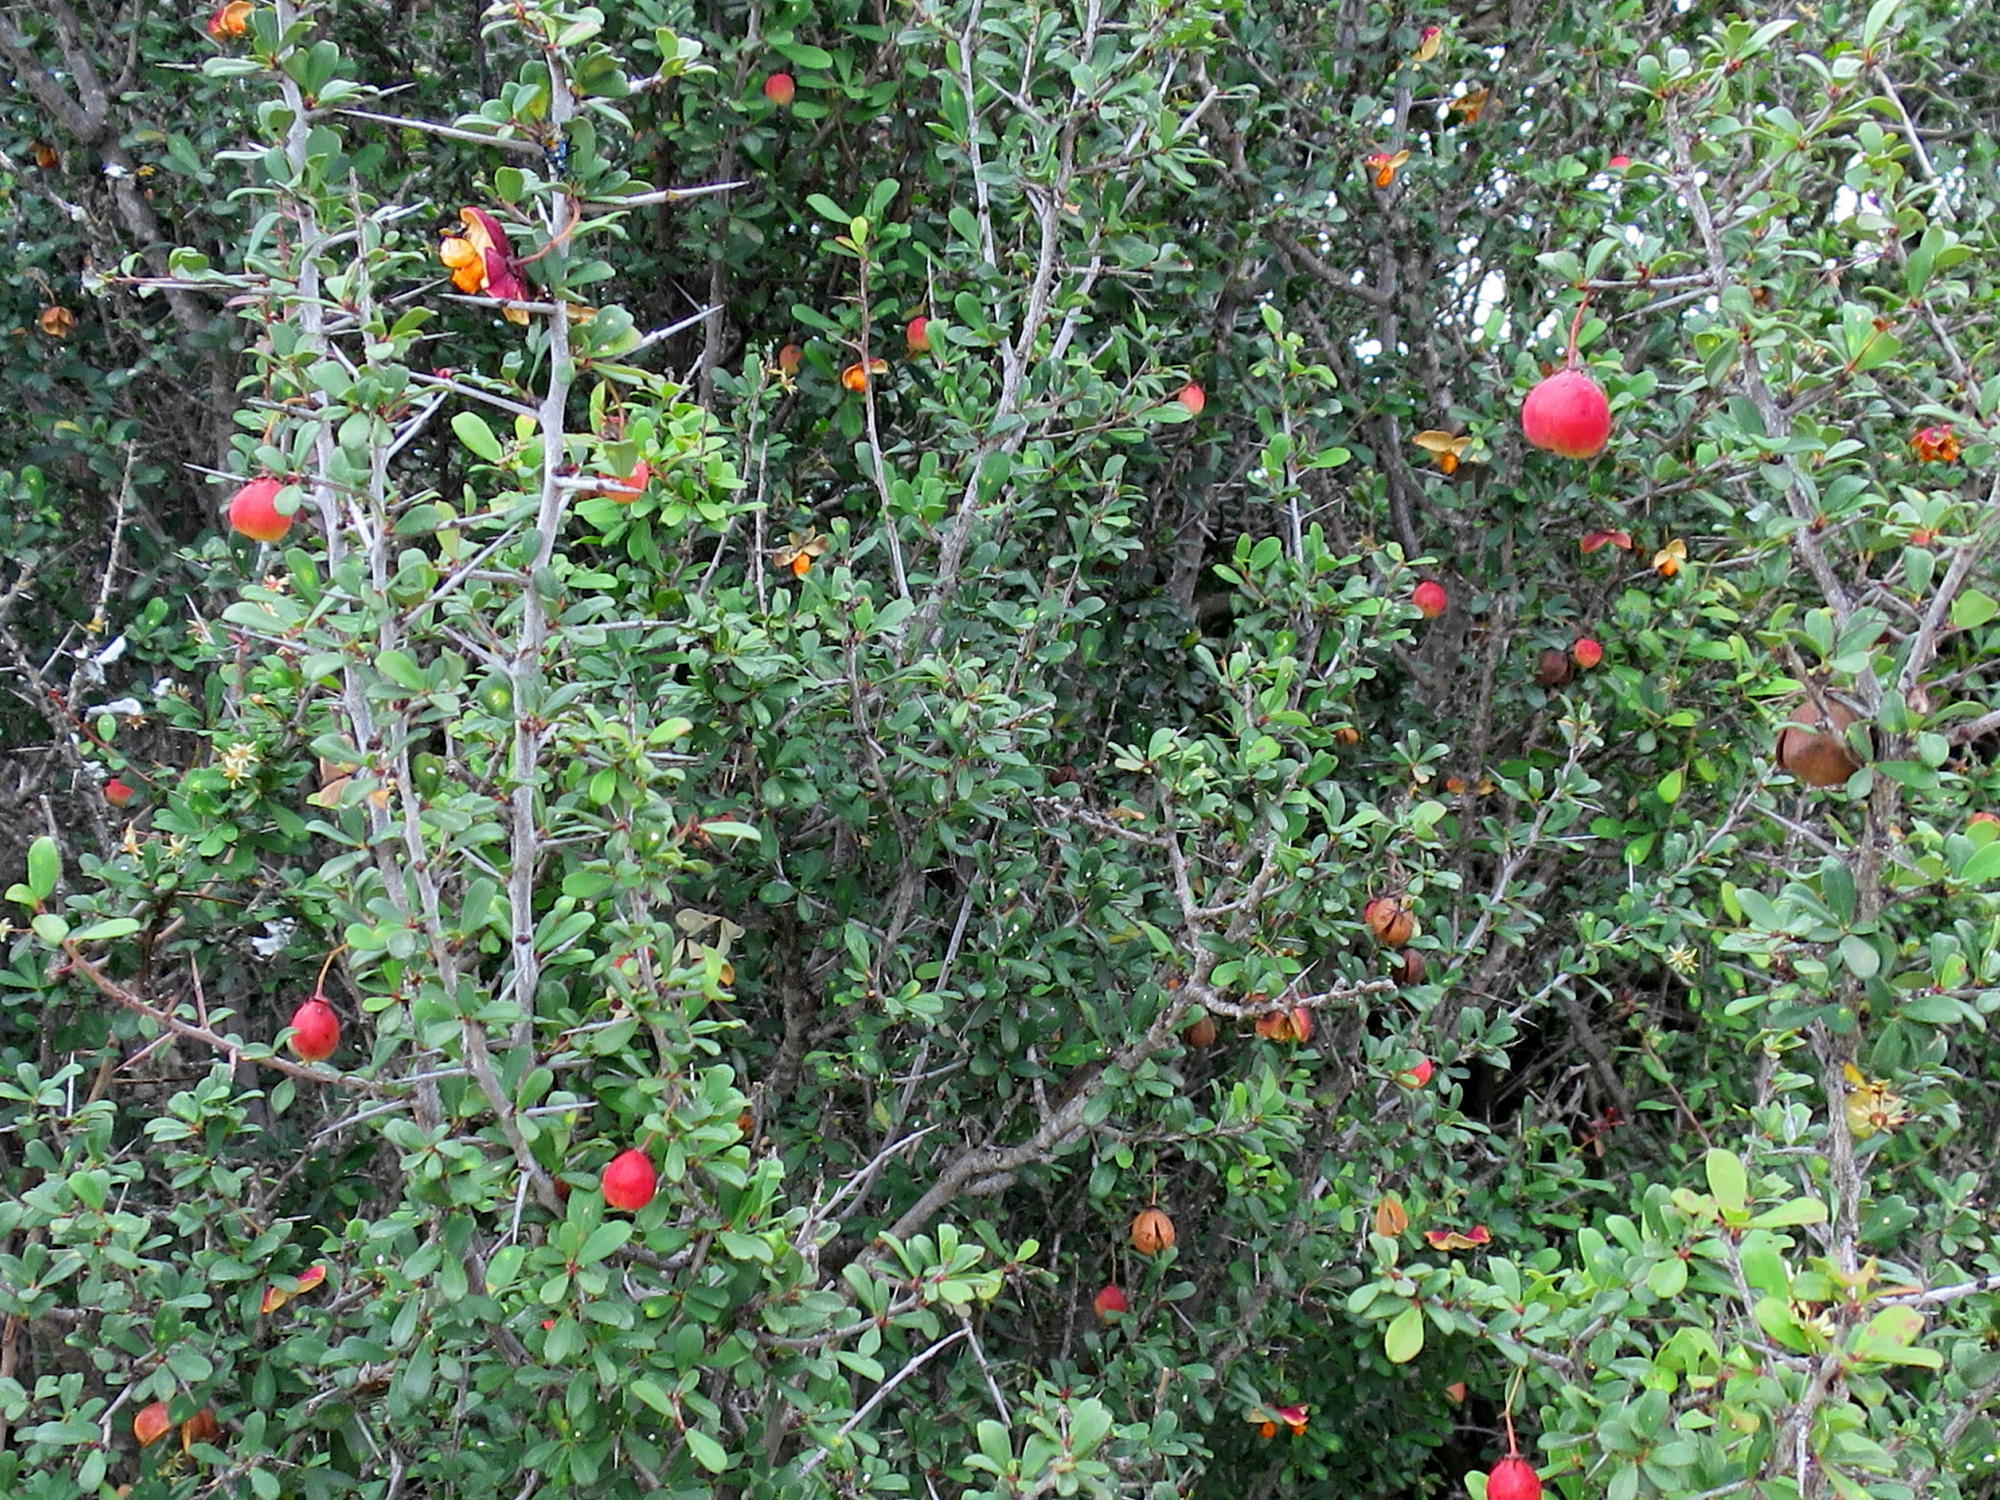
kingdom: Plantae
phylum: Tracheophyta
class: Magnoliopsida
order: Celastrales
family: Celastraceae
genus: Putterlickia
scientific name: Putterlickia pyracantha
